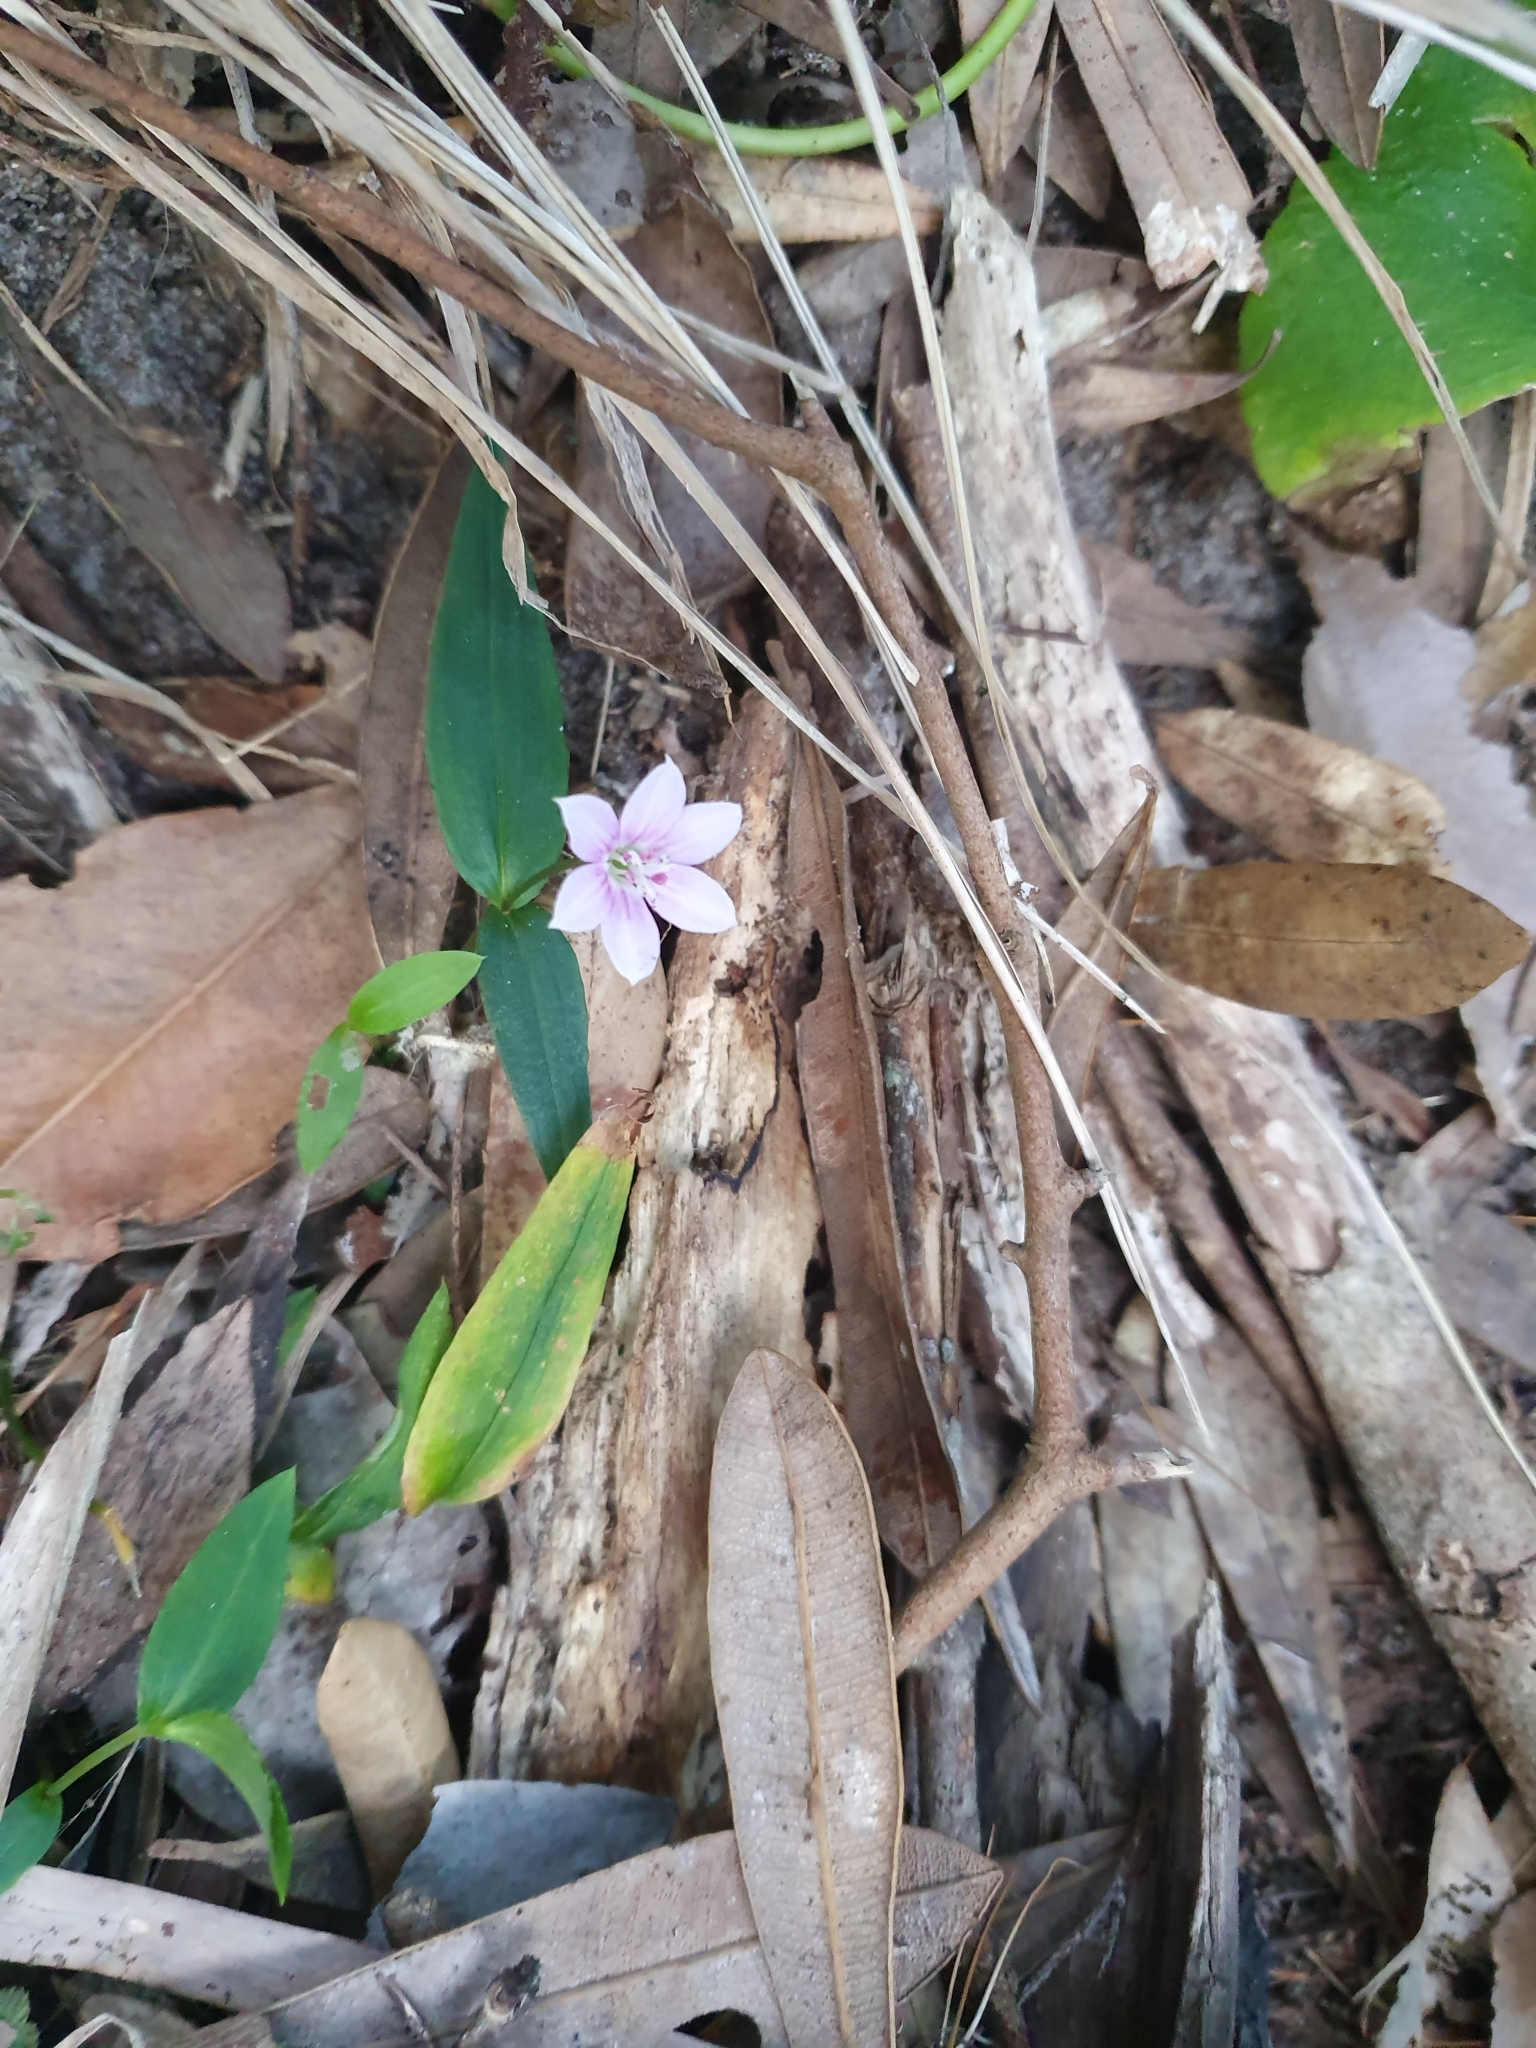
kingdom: Plantae
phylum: Tracheophyta
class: Liliopsida
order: Liliales
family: Colchicaceae
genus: Schelhammera
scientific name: Schelhammera undulata
